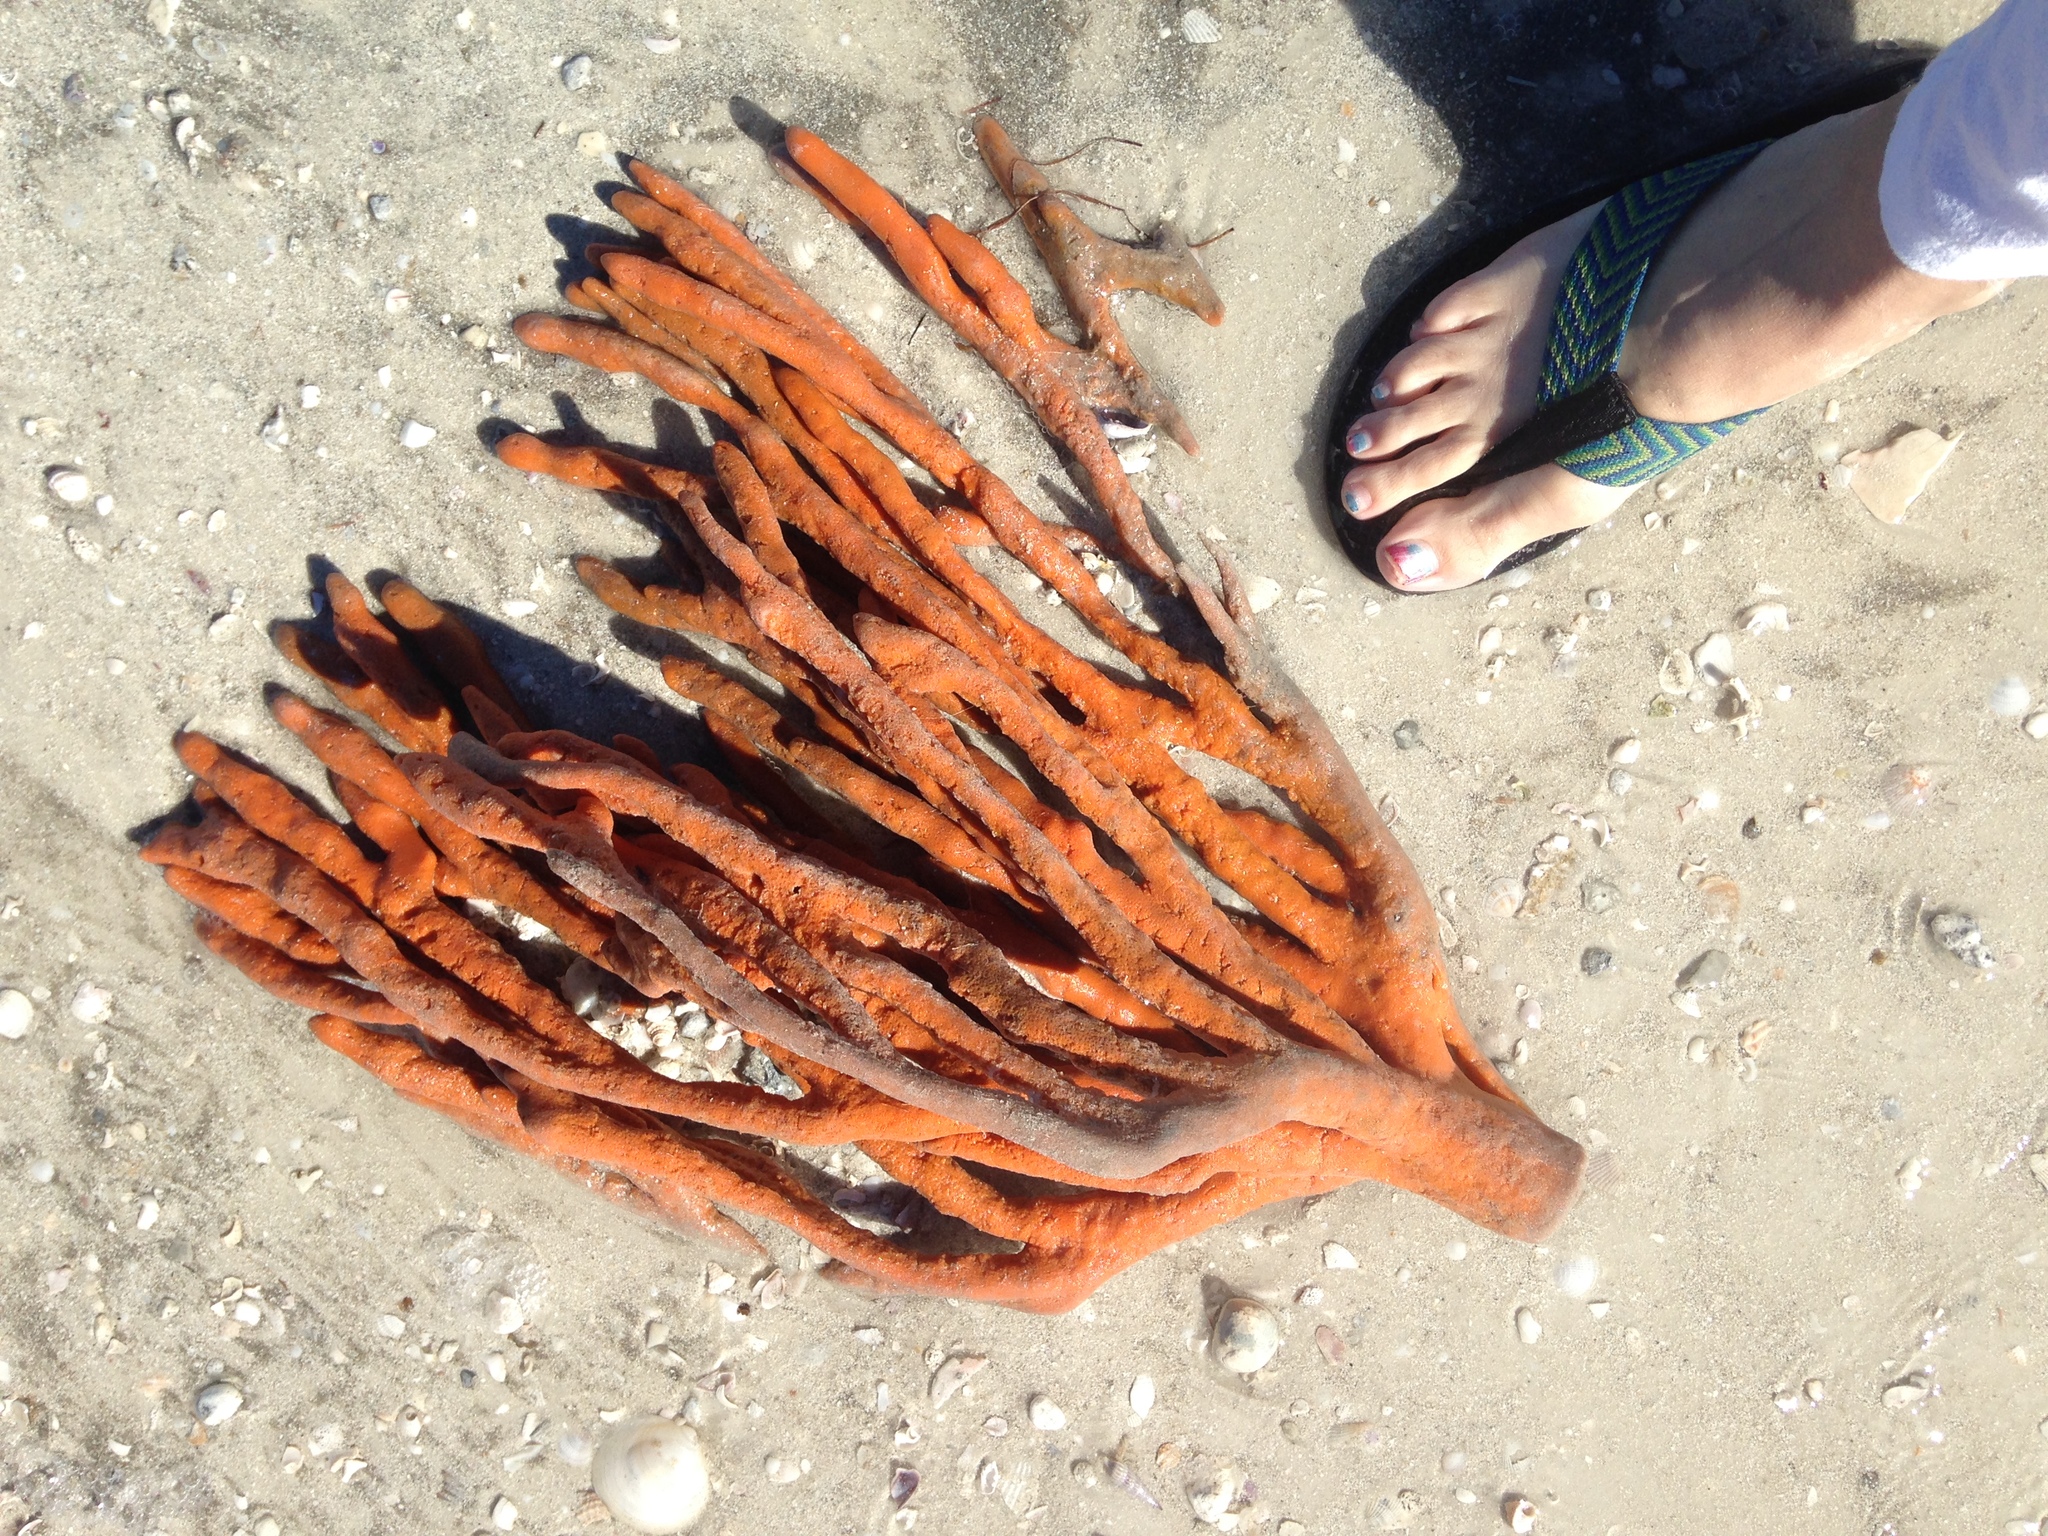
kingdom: Animalia
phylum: Porifera
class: Demospongiae
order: Axinellida
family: Axinellidae
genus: Axinella
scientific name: Axinella polycapella
